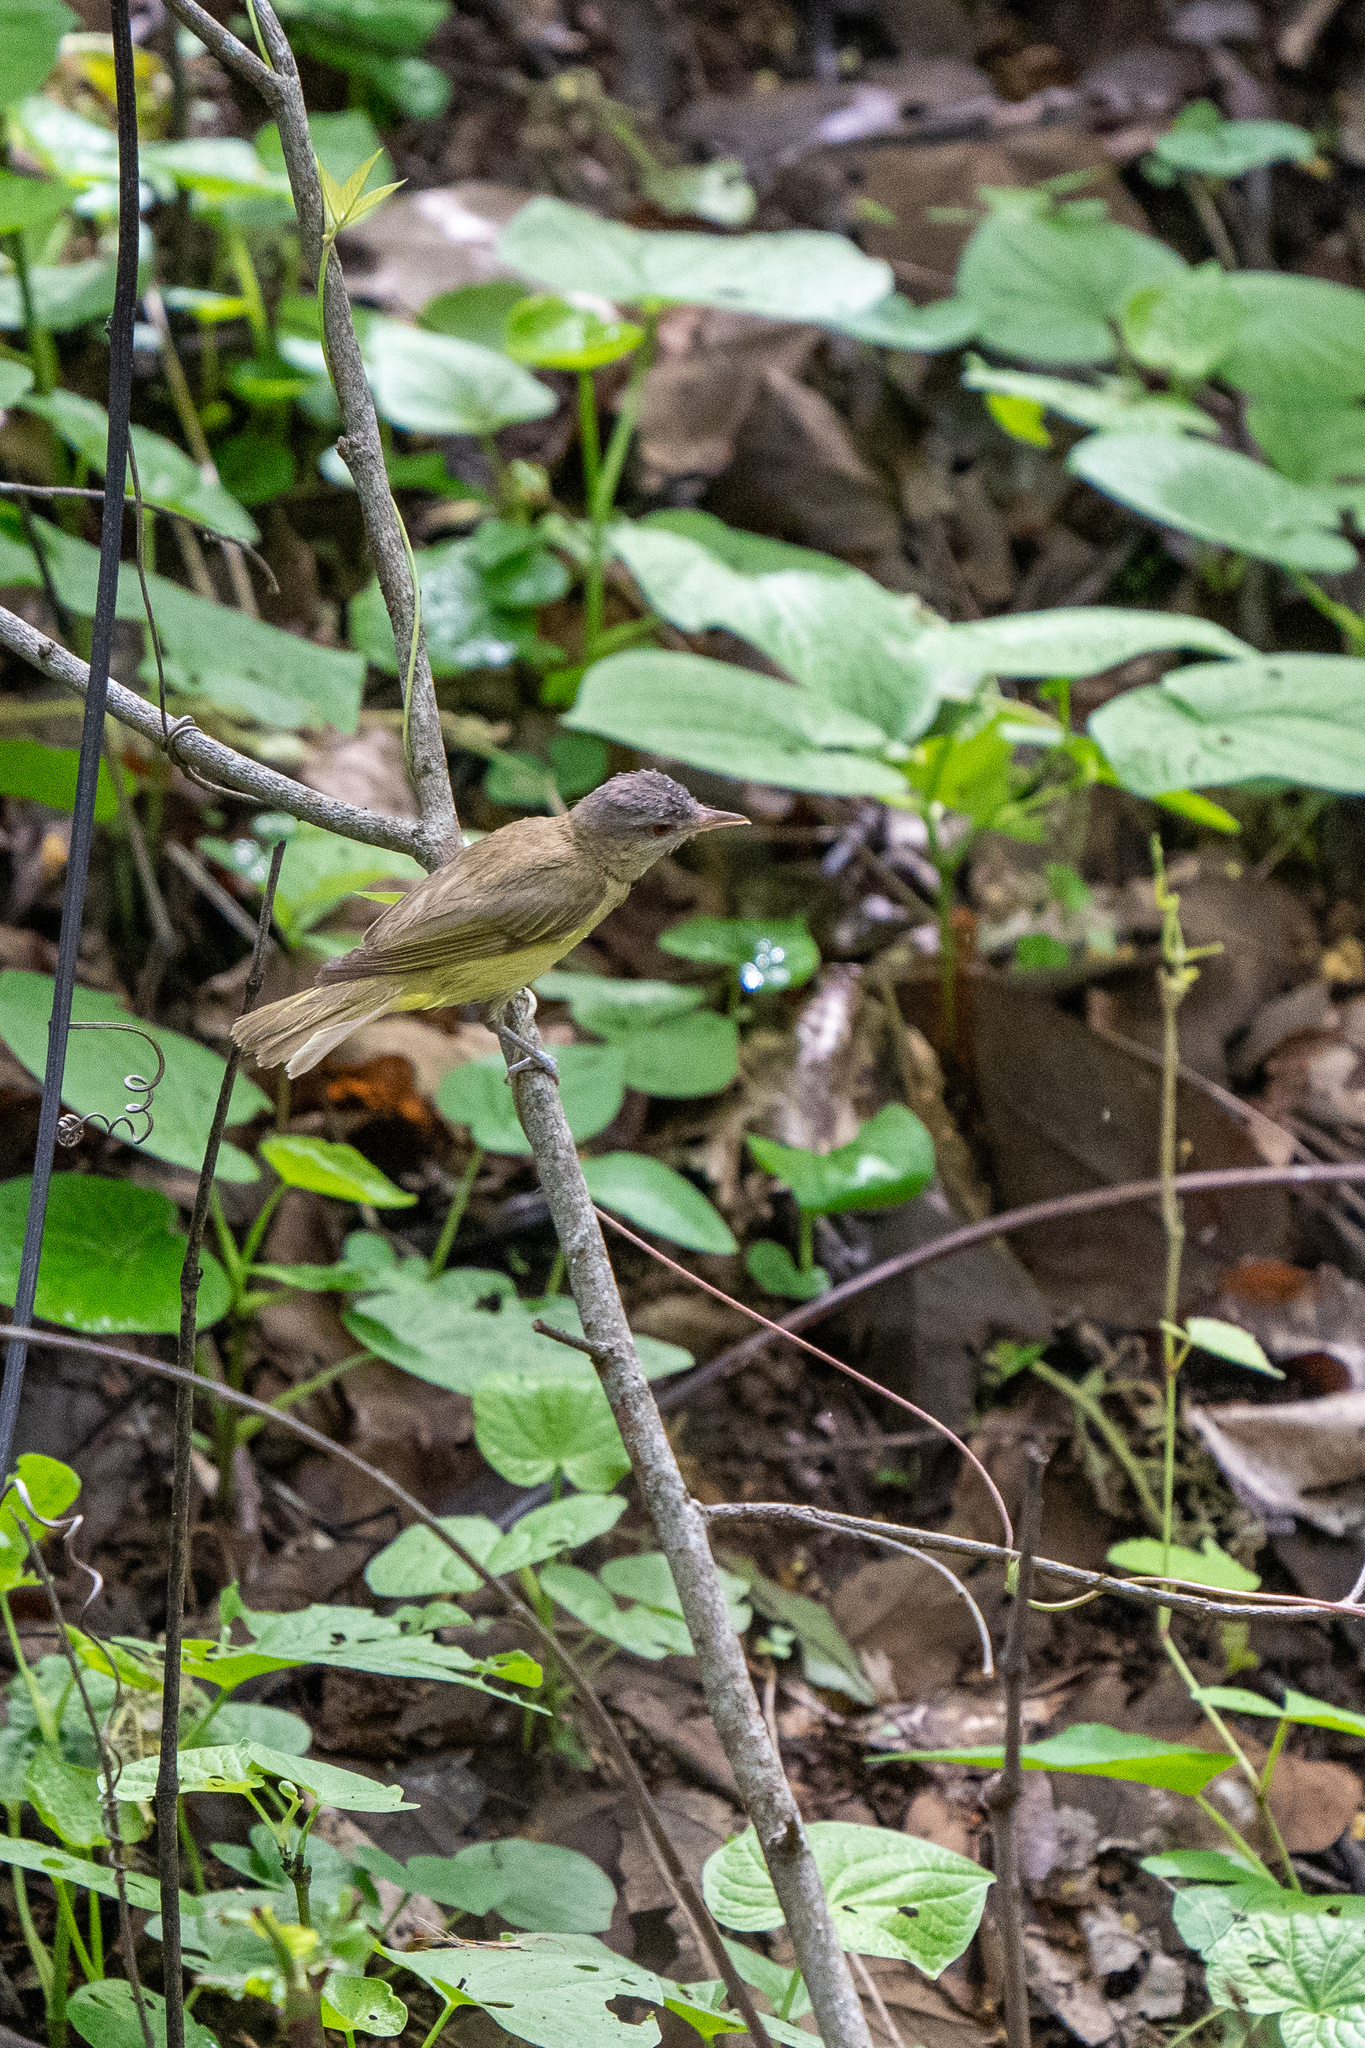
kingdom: Animalia
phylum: Chordata
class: Aves
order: Passeriformes
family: Vireonidae
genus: Vireo
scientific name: Vireo flavoviridis
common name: Yellow-green vireo
